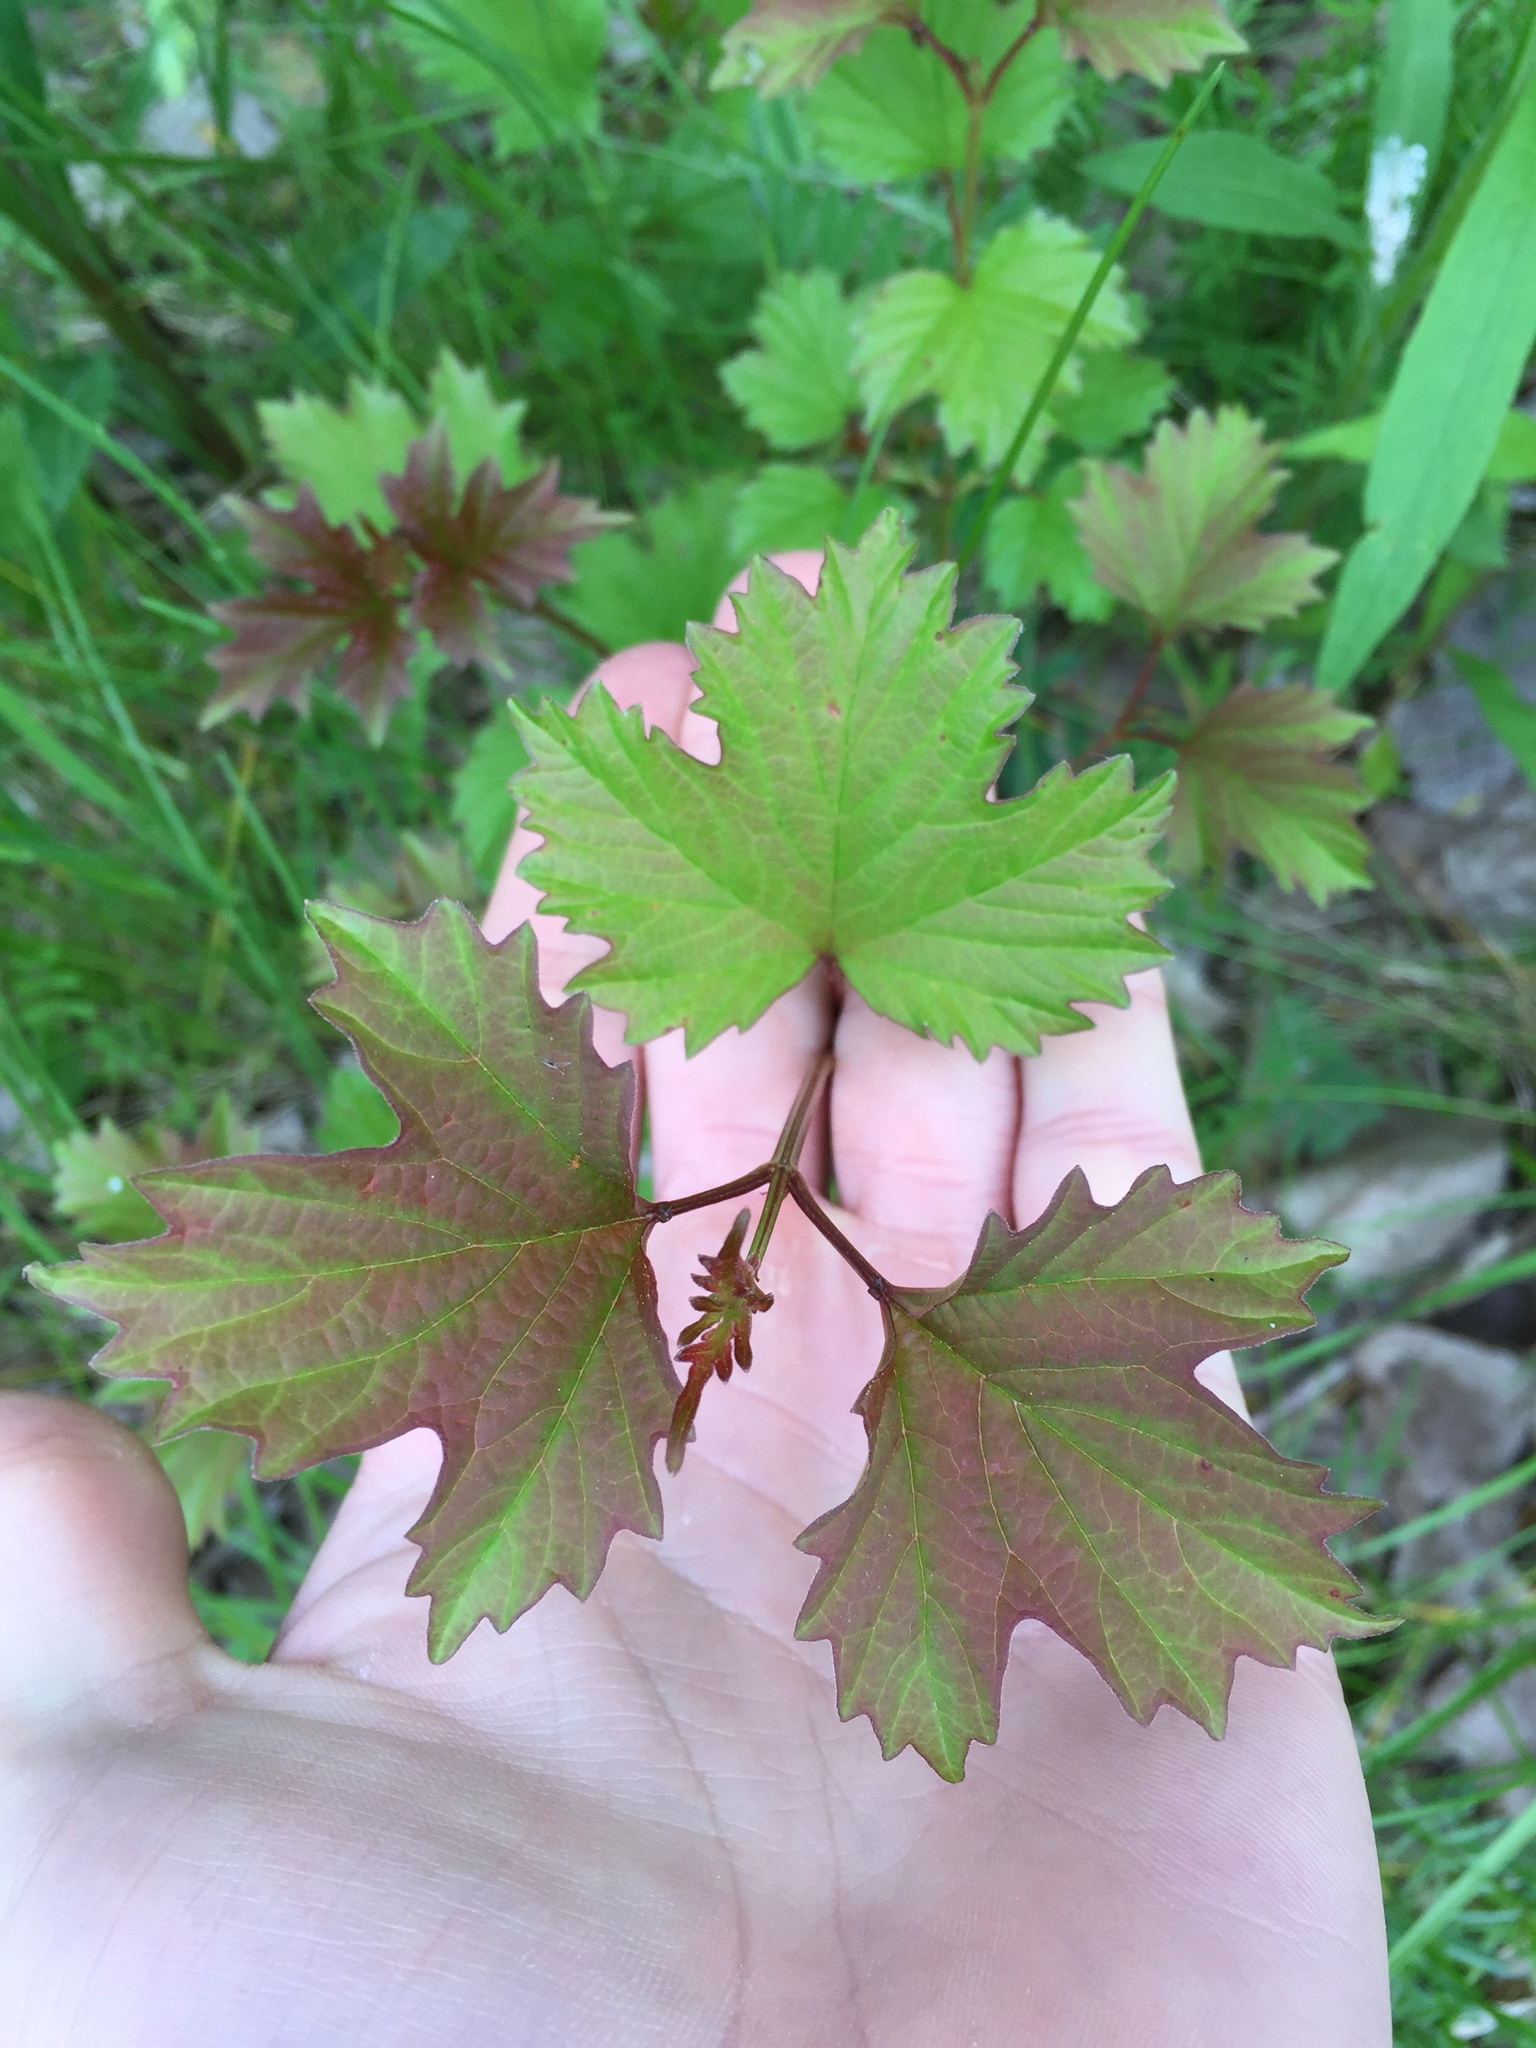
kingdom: Plantae
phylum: Tracheophyta
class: Magnoliopsida
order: Dipsacales
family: Viburnaceae
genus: Viburnum
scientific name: Viburnum opulus
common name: Guelder-rose
